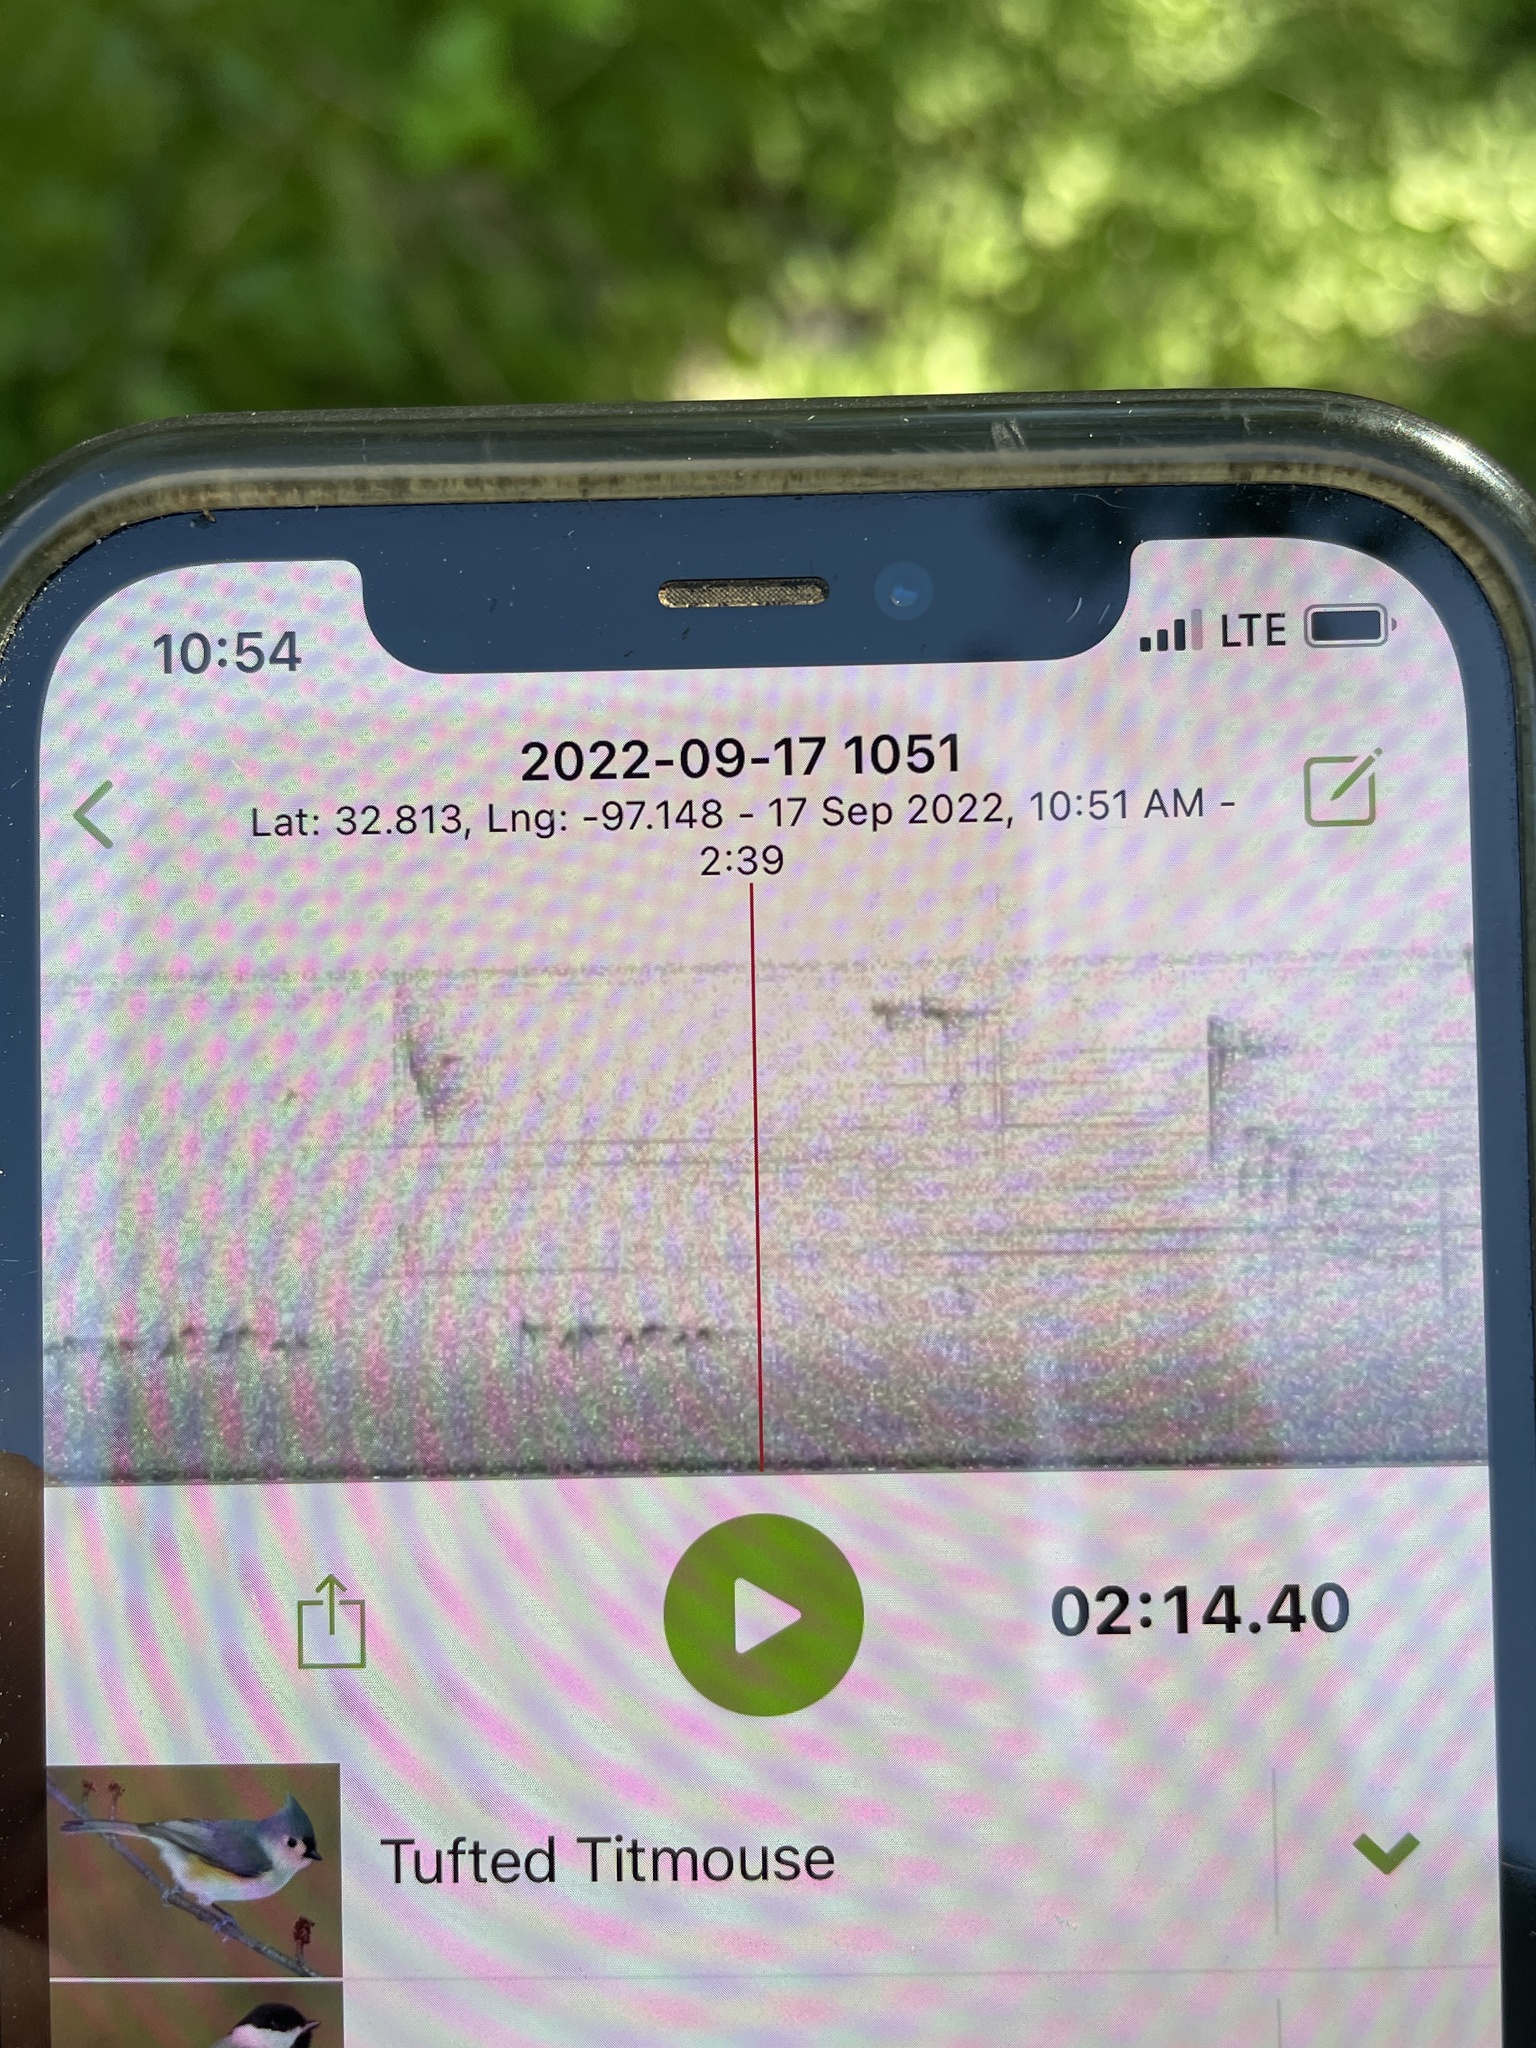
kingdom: Animalia
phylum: Chordata
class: Aves
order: Passeriformes
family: Paridae
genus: Baeolophus
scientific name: Baeolophus bicolor
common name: Tufted titmouse
